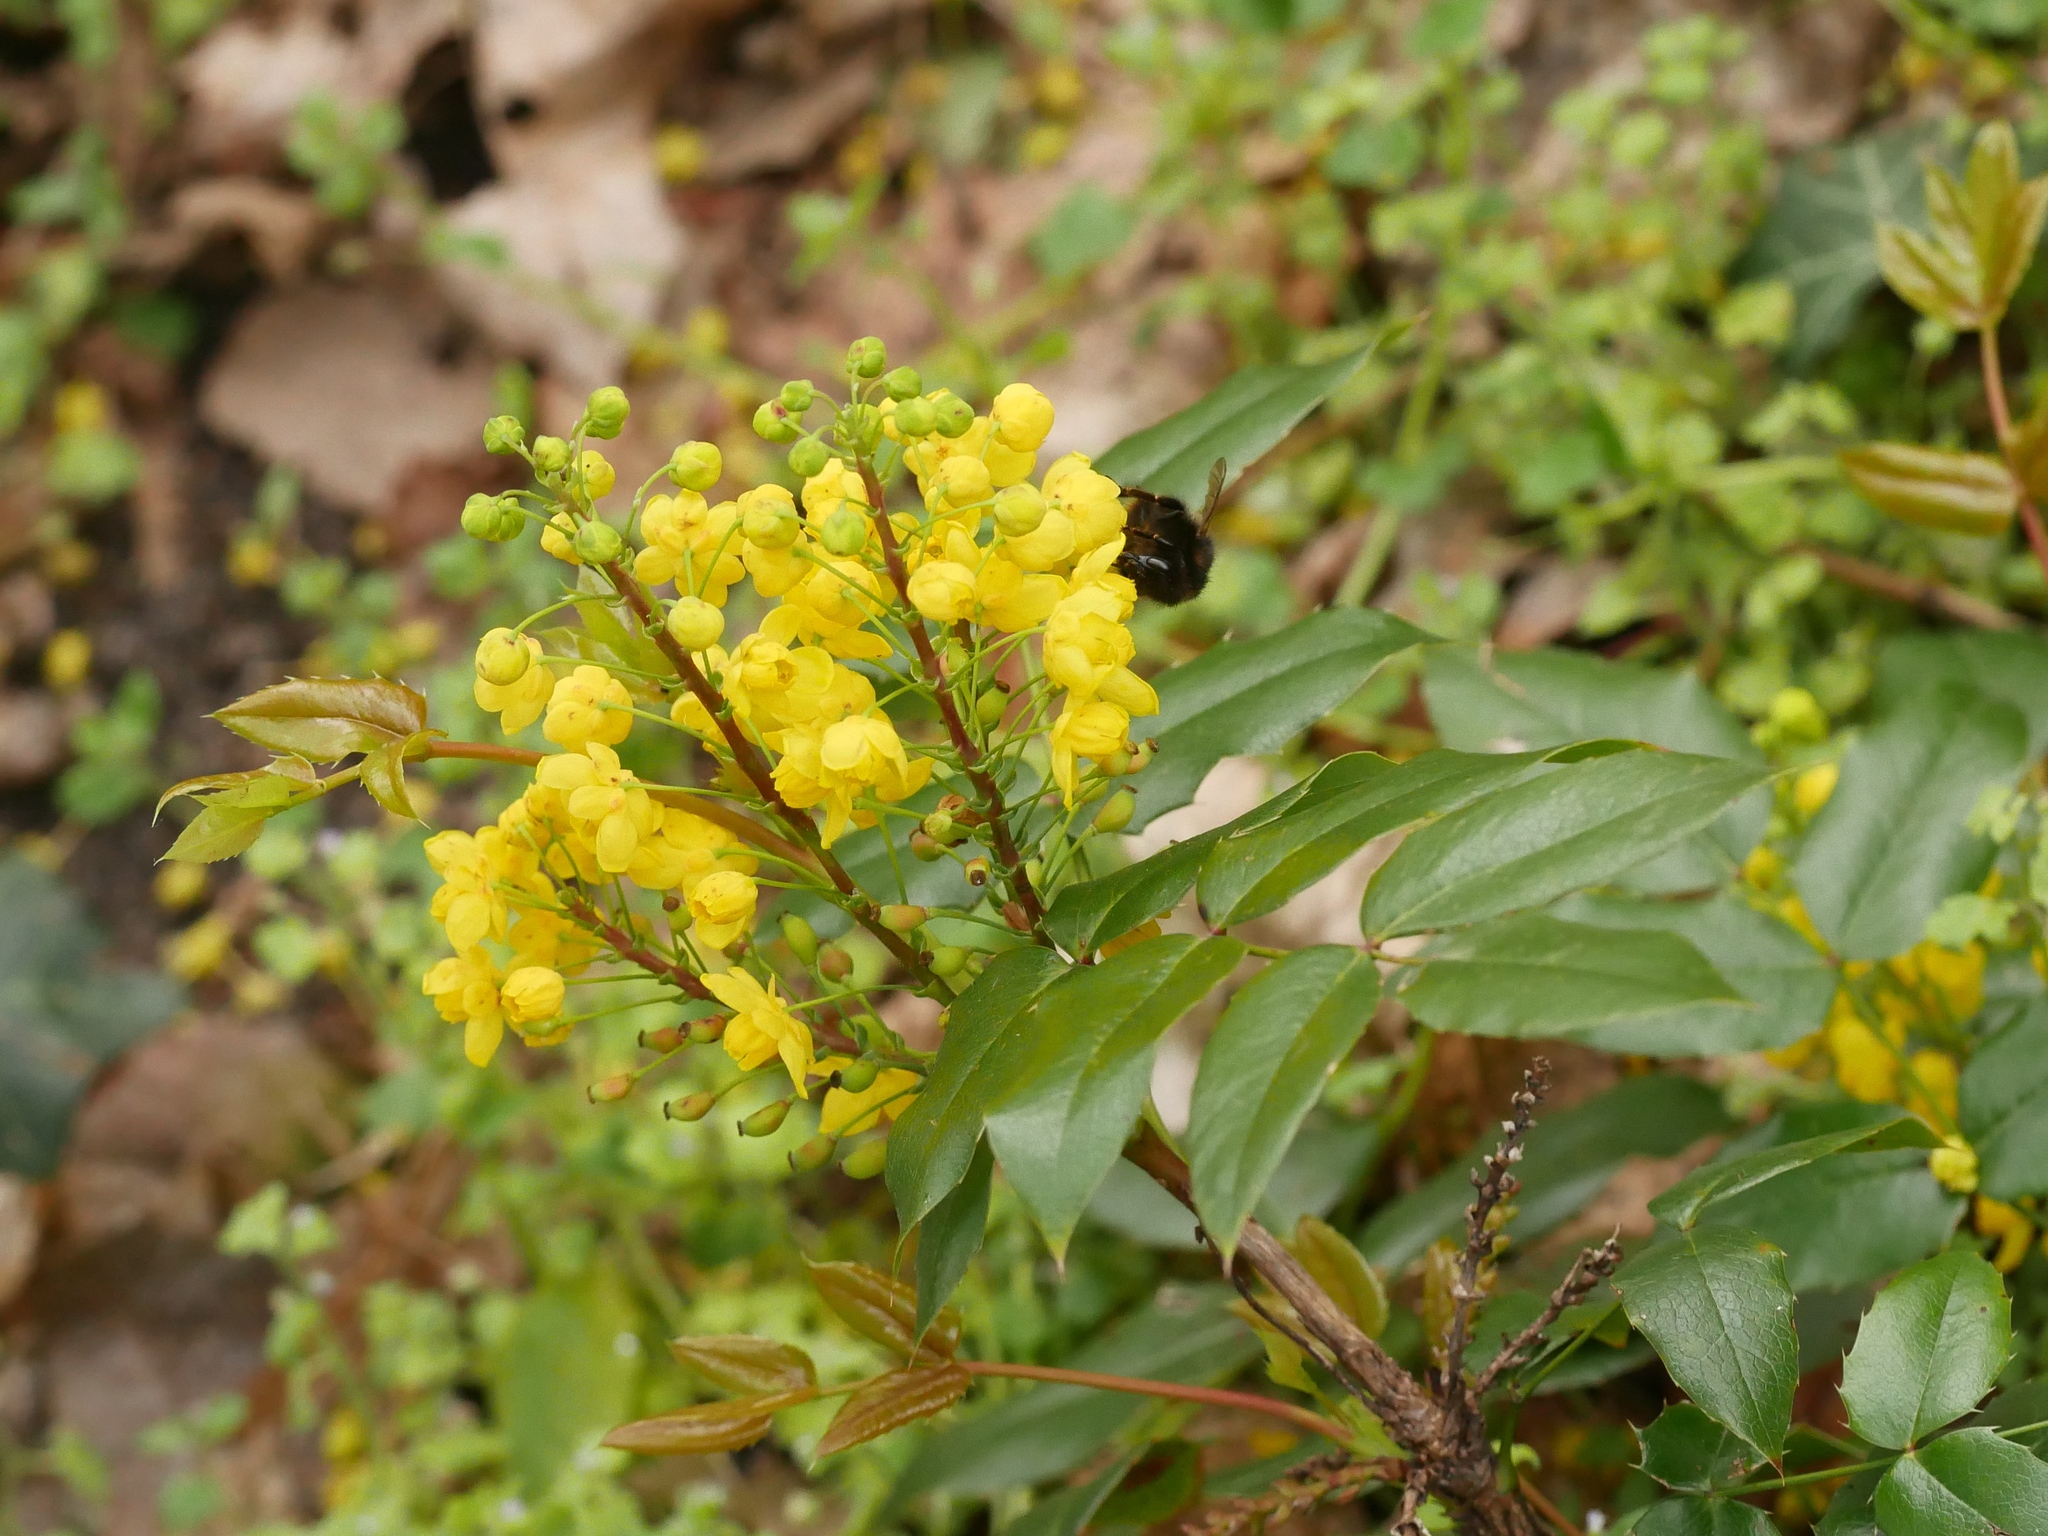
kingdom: Plantae
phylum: Tracheophyta
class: Magnoliopsida
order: Ranunculales
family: Berberidaceae
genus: Mahonia
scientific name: Mahonia aquifolium
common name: Oregon-grape
